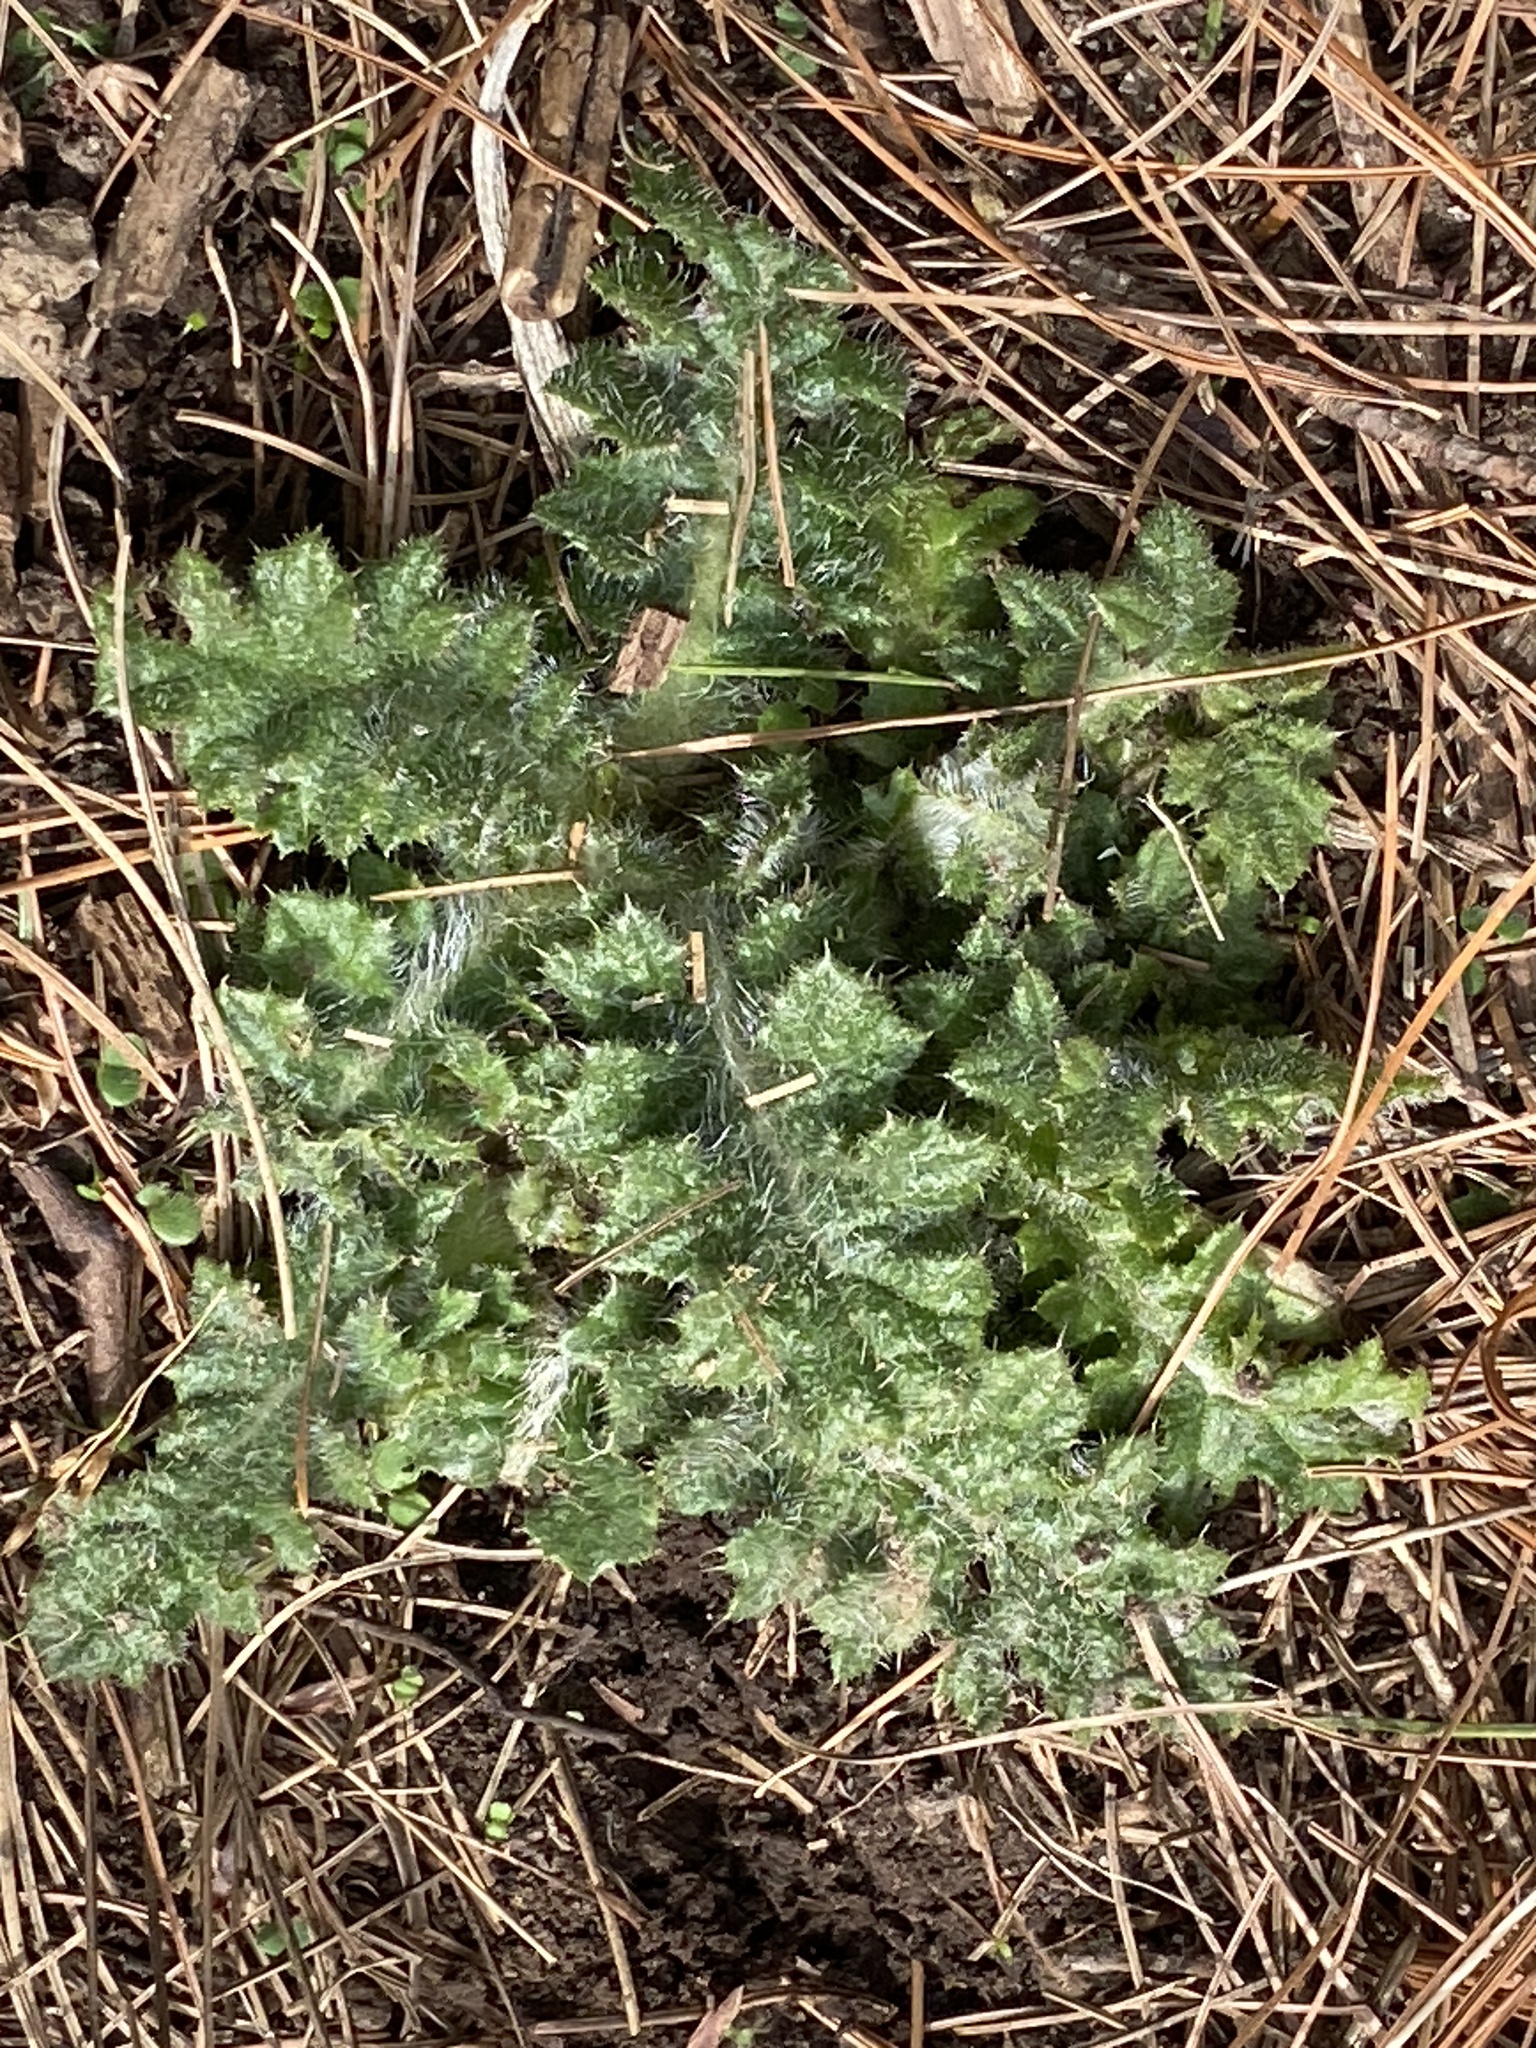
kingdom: Plantae
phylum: Tracheophyta
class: Magnoliopsida
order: Asterales
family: Asteraceae
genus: Cirsium
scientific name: Cirsium vulgare
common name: Bull thistle
